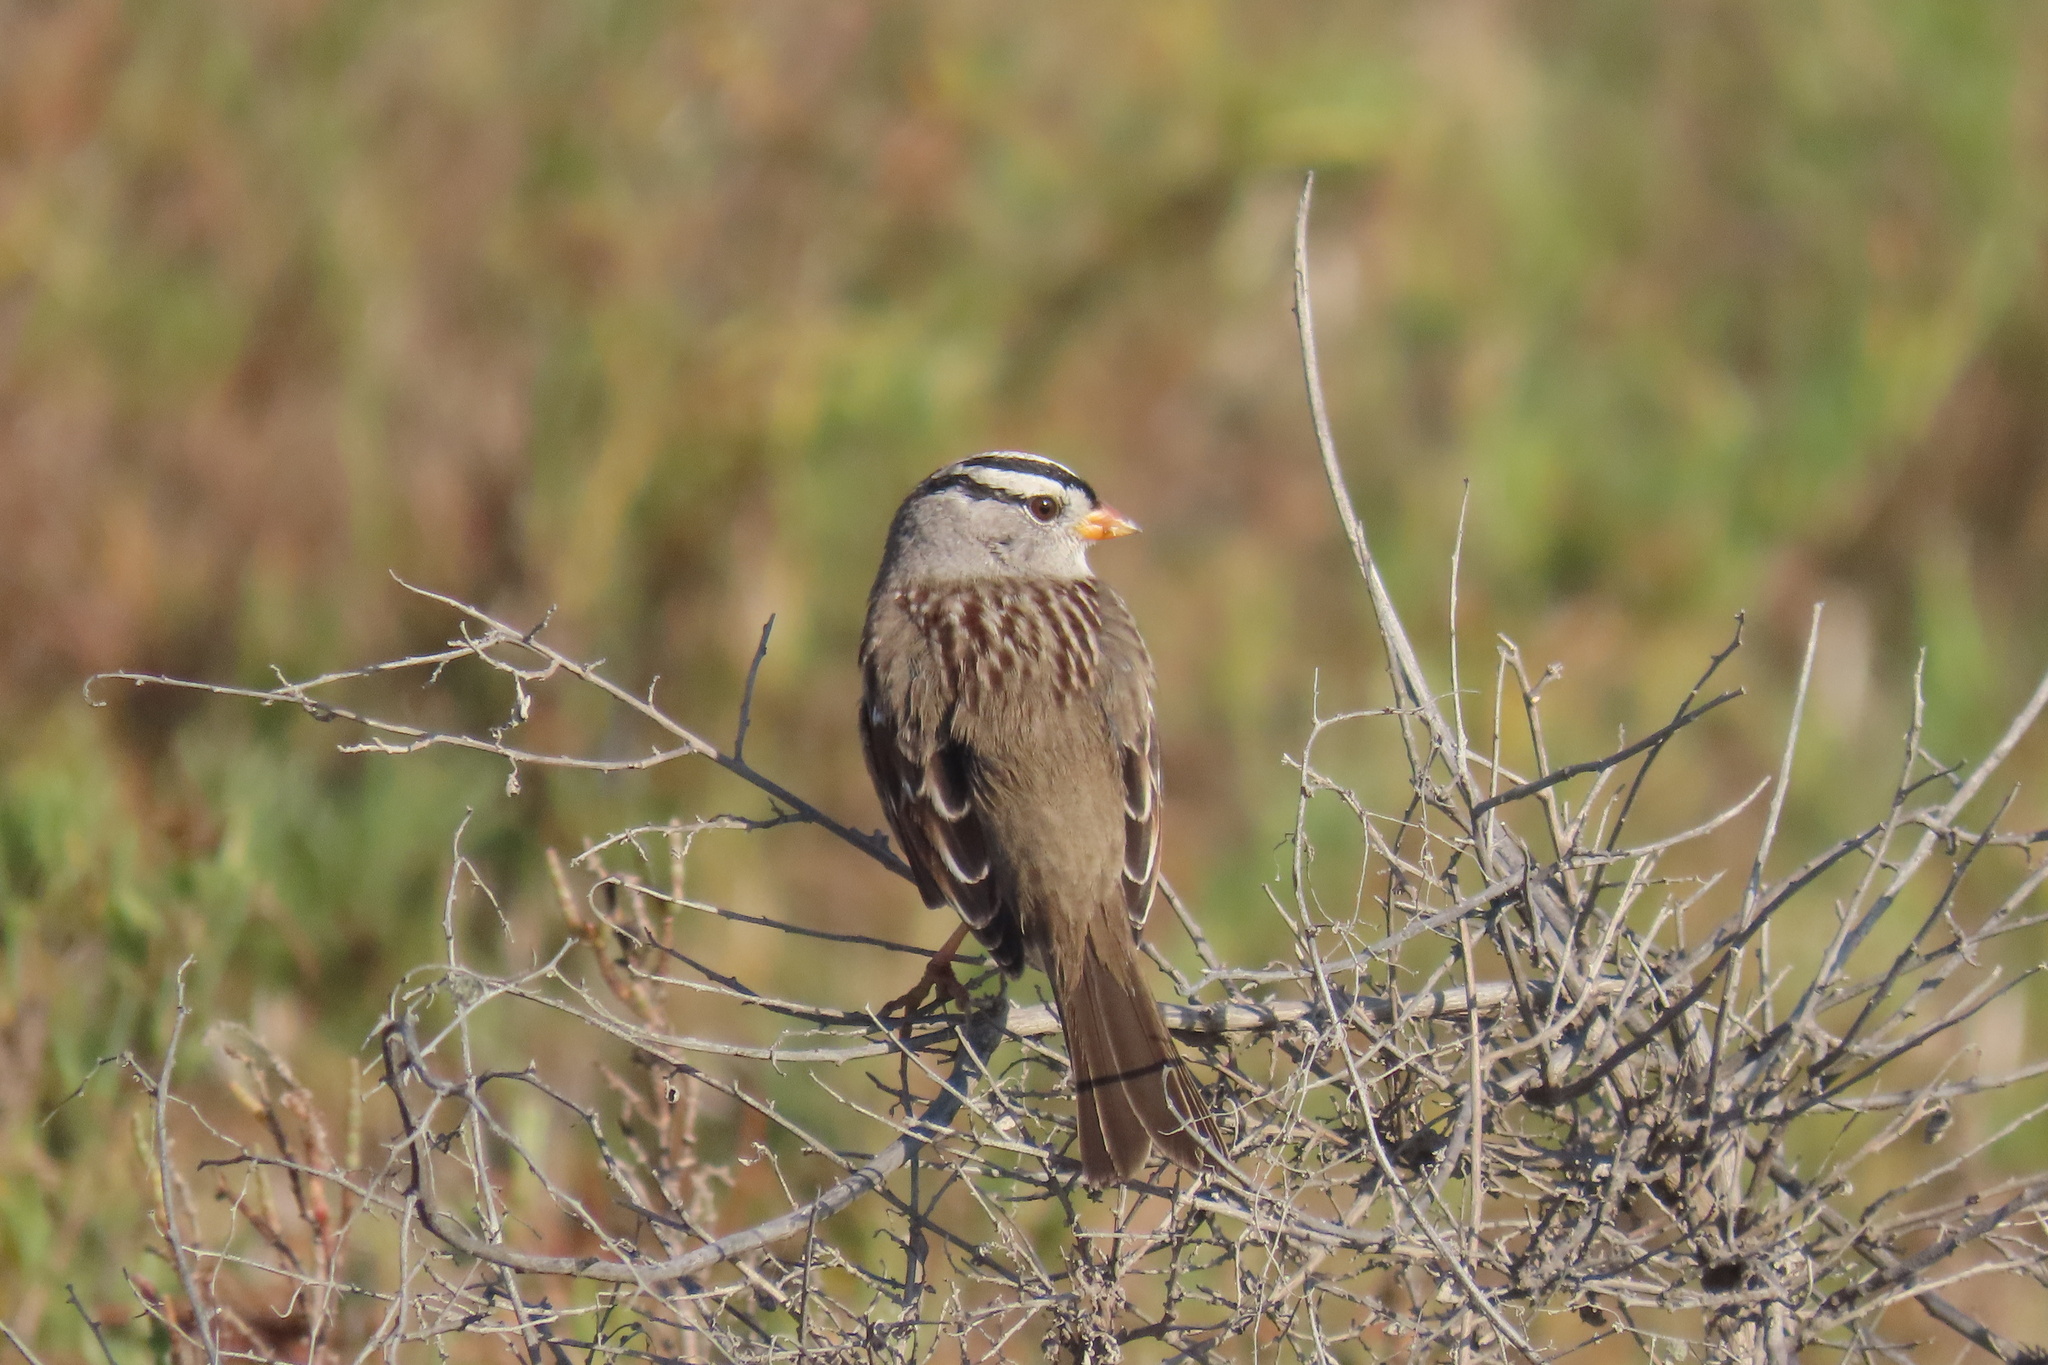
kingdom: Animalia
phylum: Chordata
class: Aves
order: Passeriformes
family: Passerellidae
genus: Zonotrichia
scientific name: Zonotrichia leucophrys
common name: White-crowned sparrow
